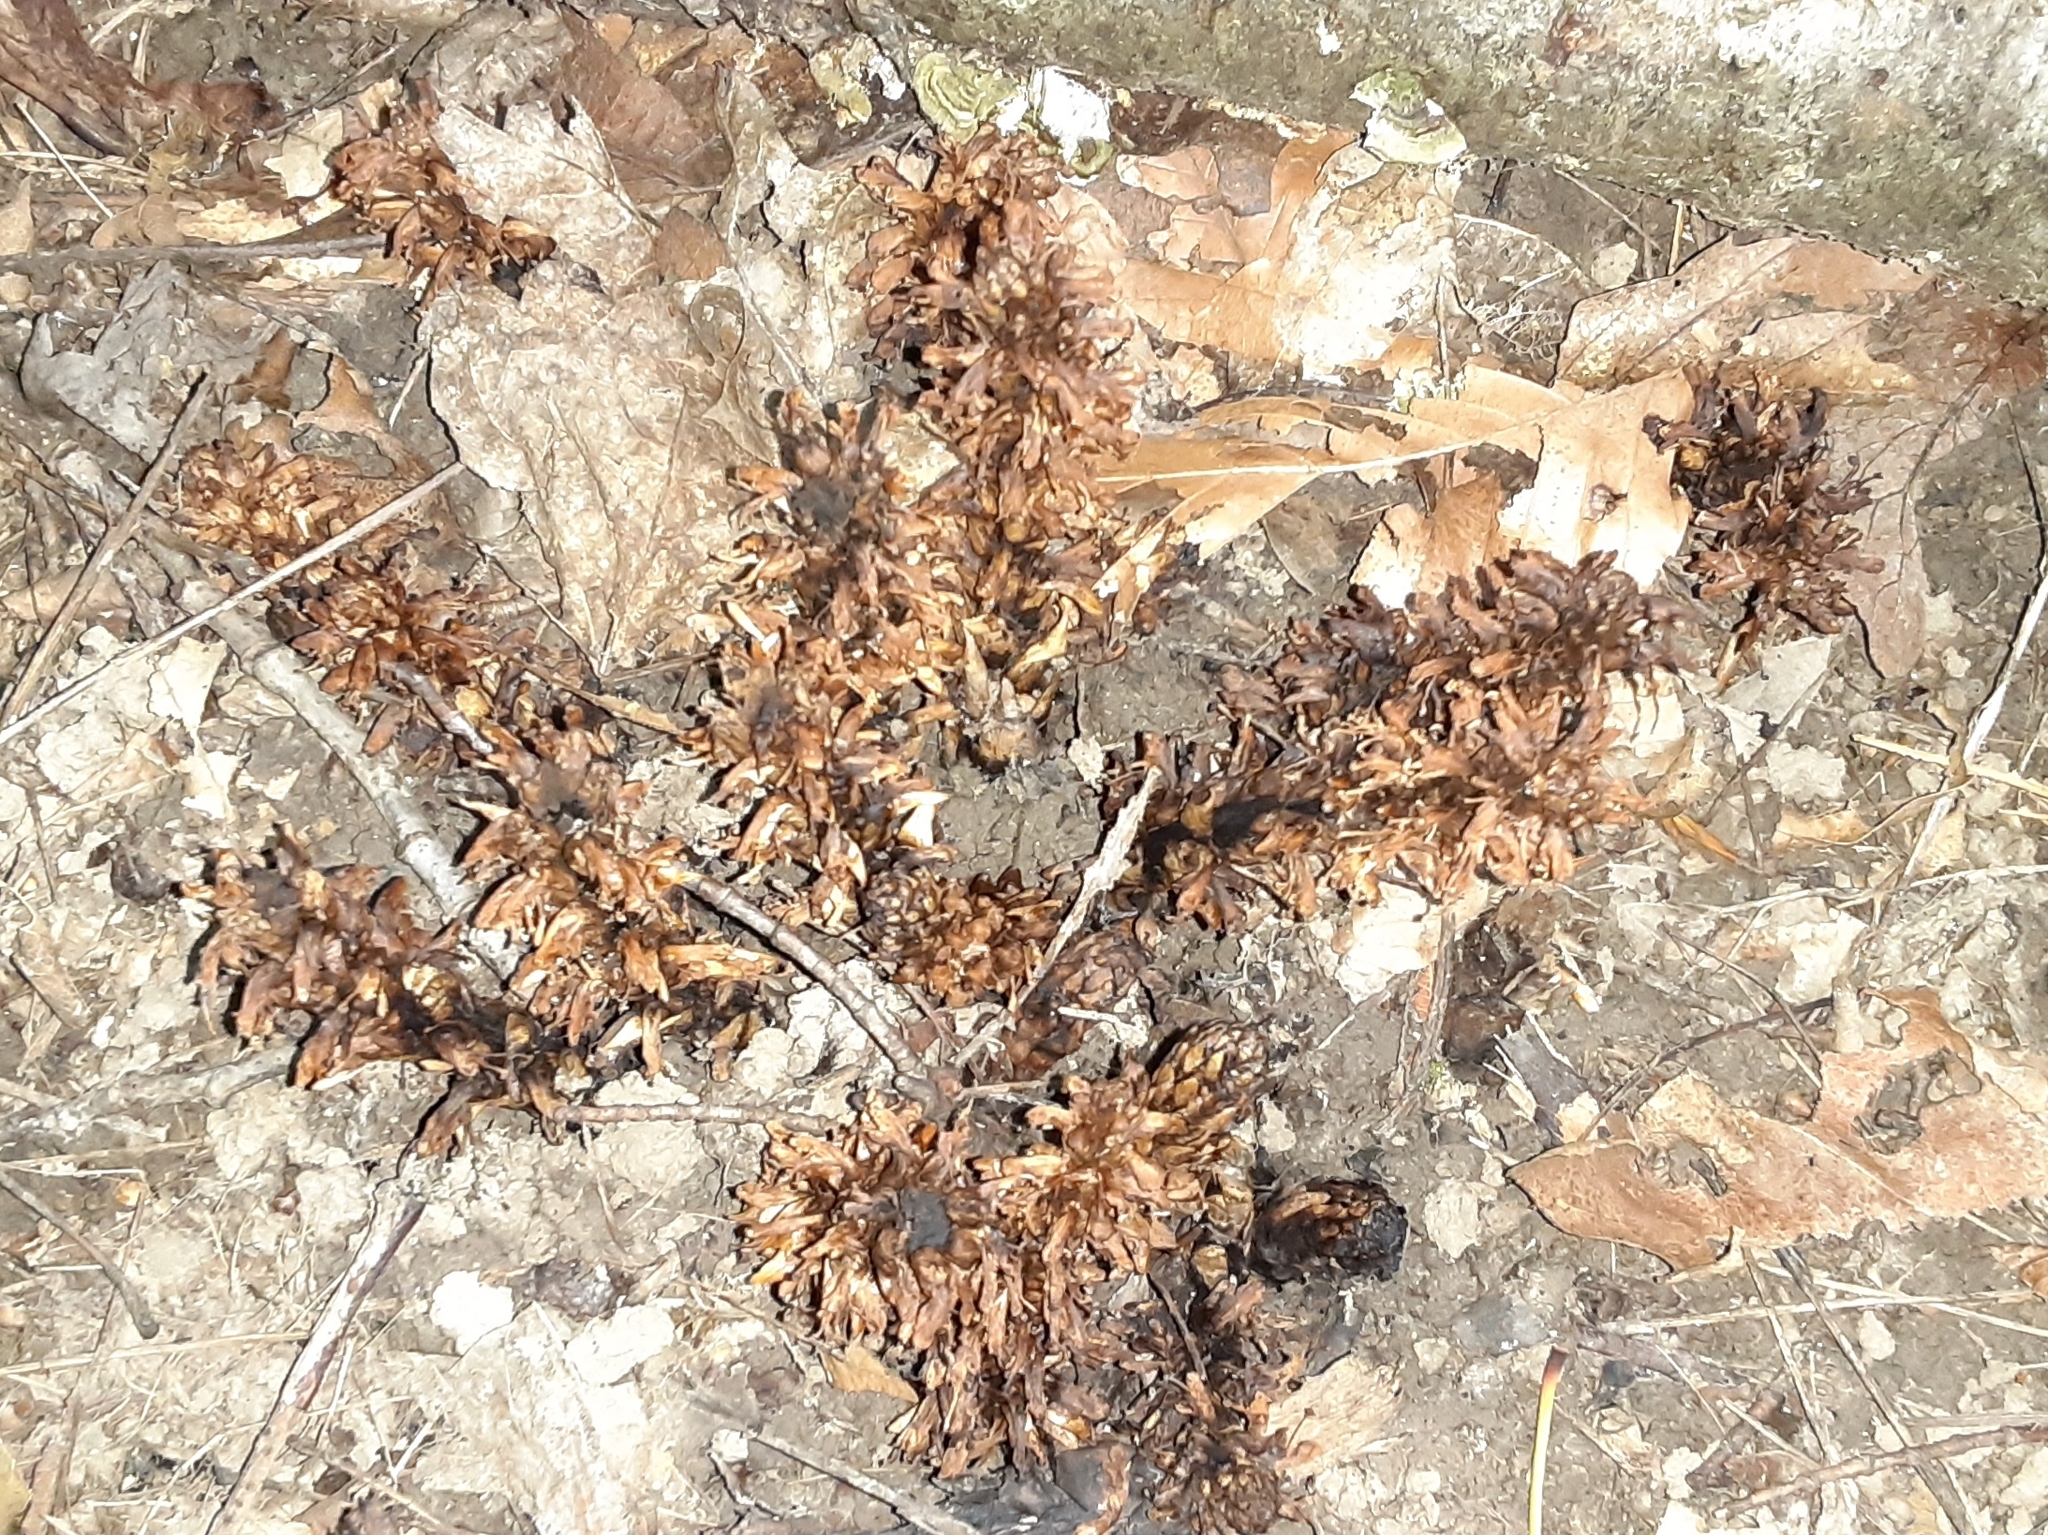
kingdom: Plantae
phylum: Tracheophyta
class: Magnoliopsida
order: Lamiales
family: Orobanchaceae
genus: Conopholis
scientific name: Conopholis americana
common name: American cancer-root
